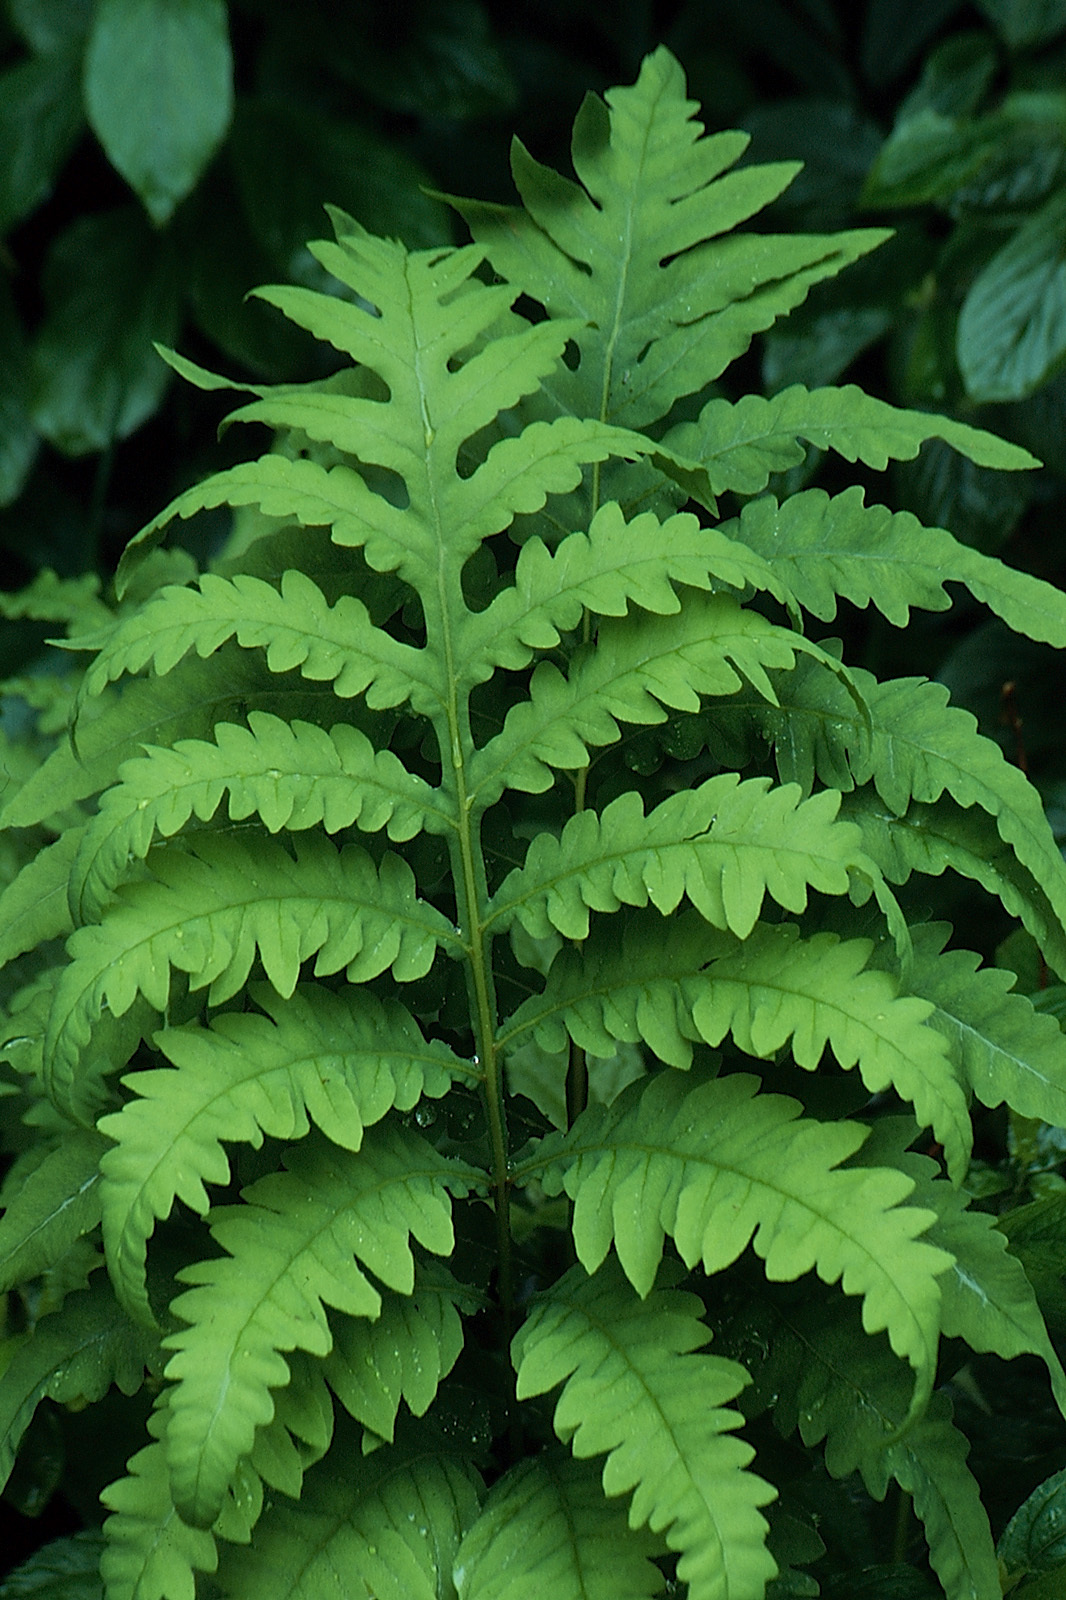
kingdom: Plantae
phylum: Tracheophyta
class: Polypodiopsida
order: Polypodiales
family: Onocleaceae
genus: Onoclea
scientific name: Onoclea sensibilis
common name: Sensitive fern
